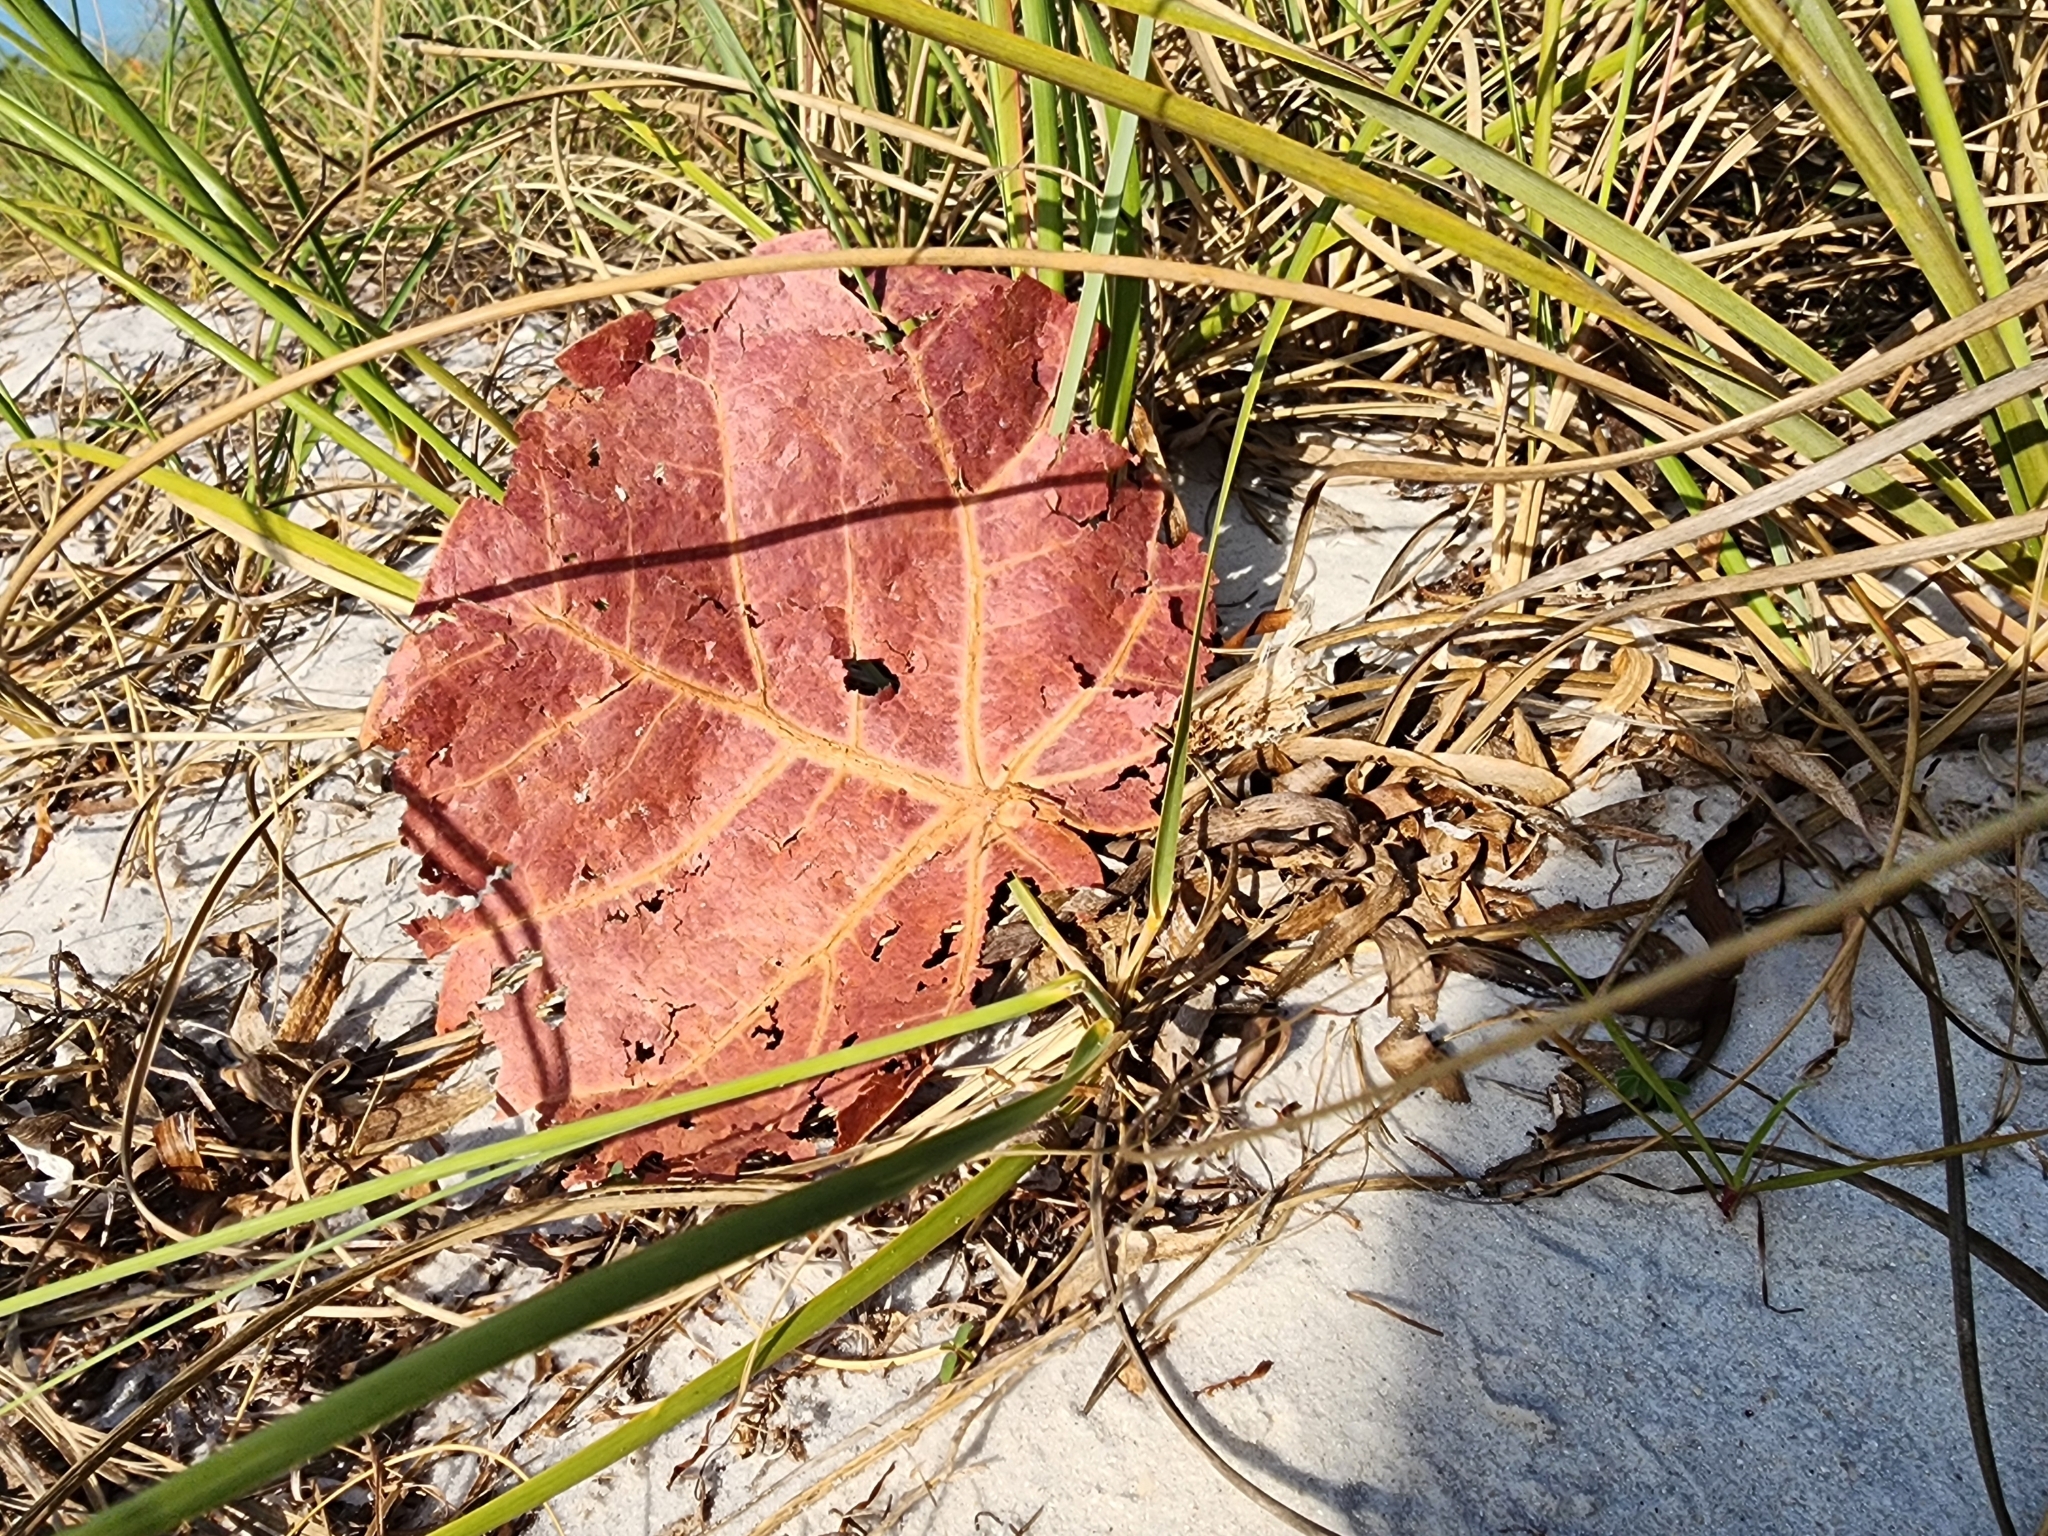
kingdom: Plantae
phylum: Tracheophyta
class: Magnoliopsida
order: Caryophyllales
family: Polygonaceae
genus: Coccoloba
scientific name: Coccoloba uvifera
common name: Seagrape
